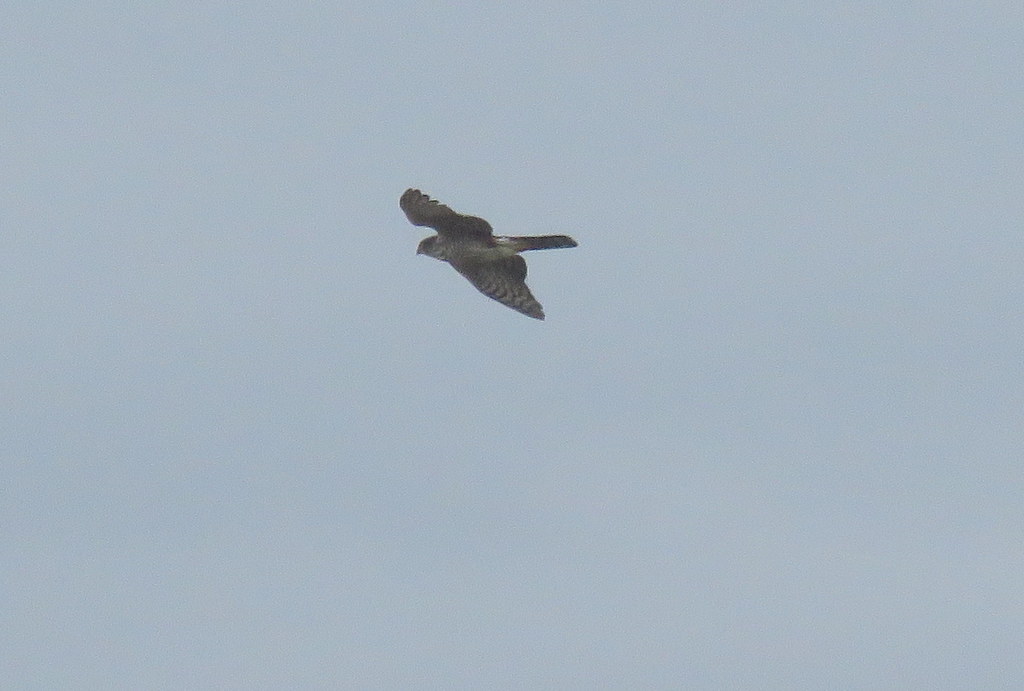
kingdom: Animalia
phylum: Chordata
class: Aves
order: Accipitriformes
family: Accipitridae
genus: Accipiter
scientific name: Accipiter striatus
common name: Sharp-shinned hawk
